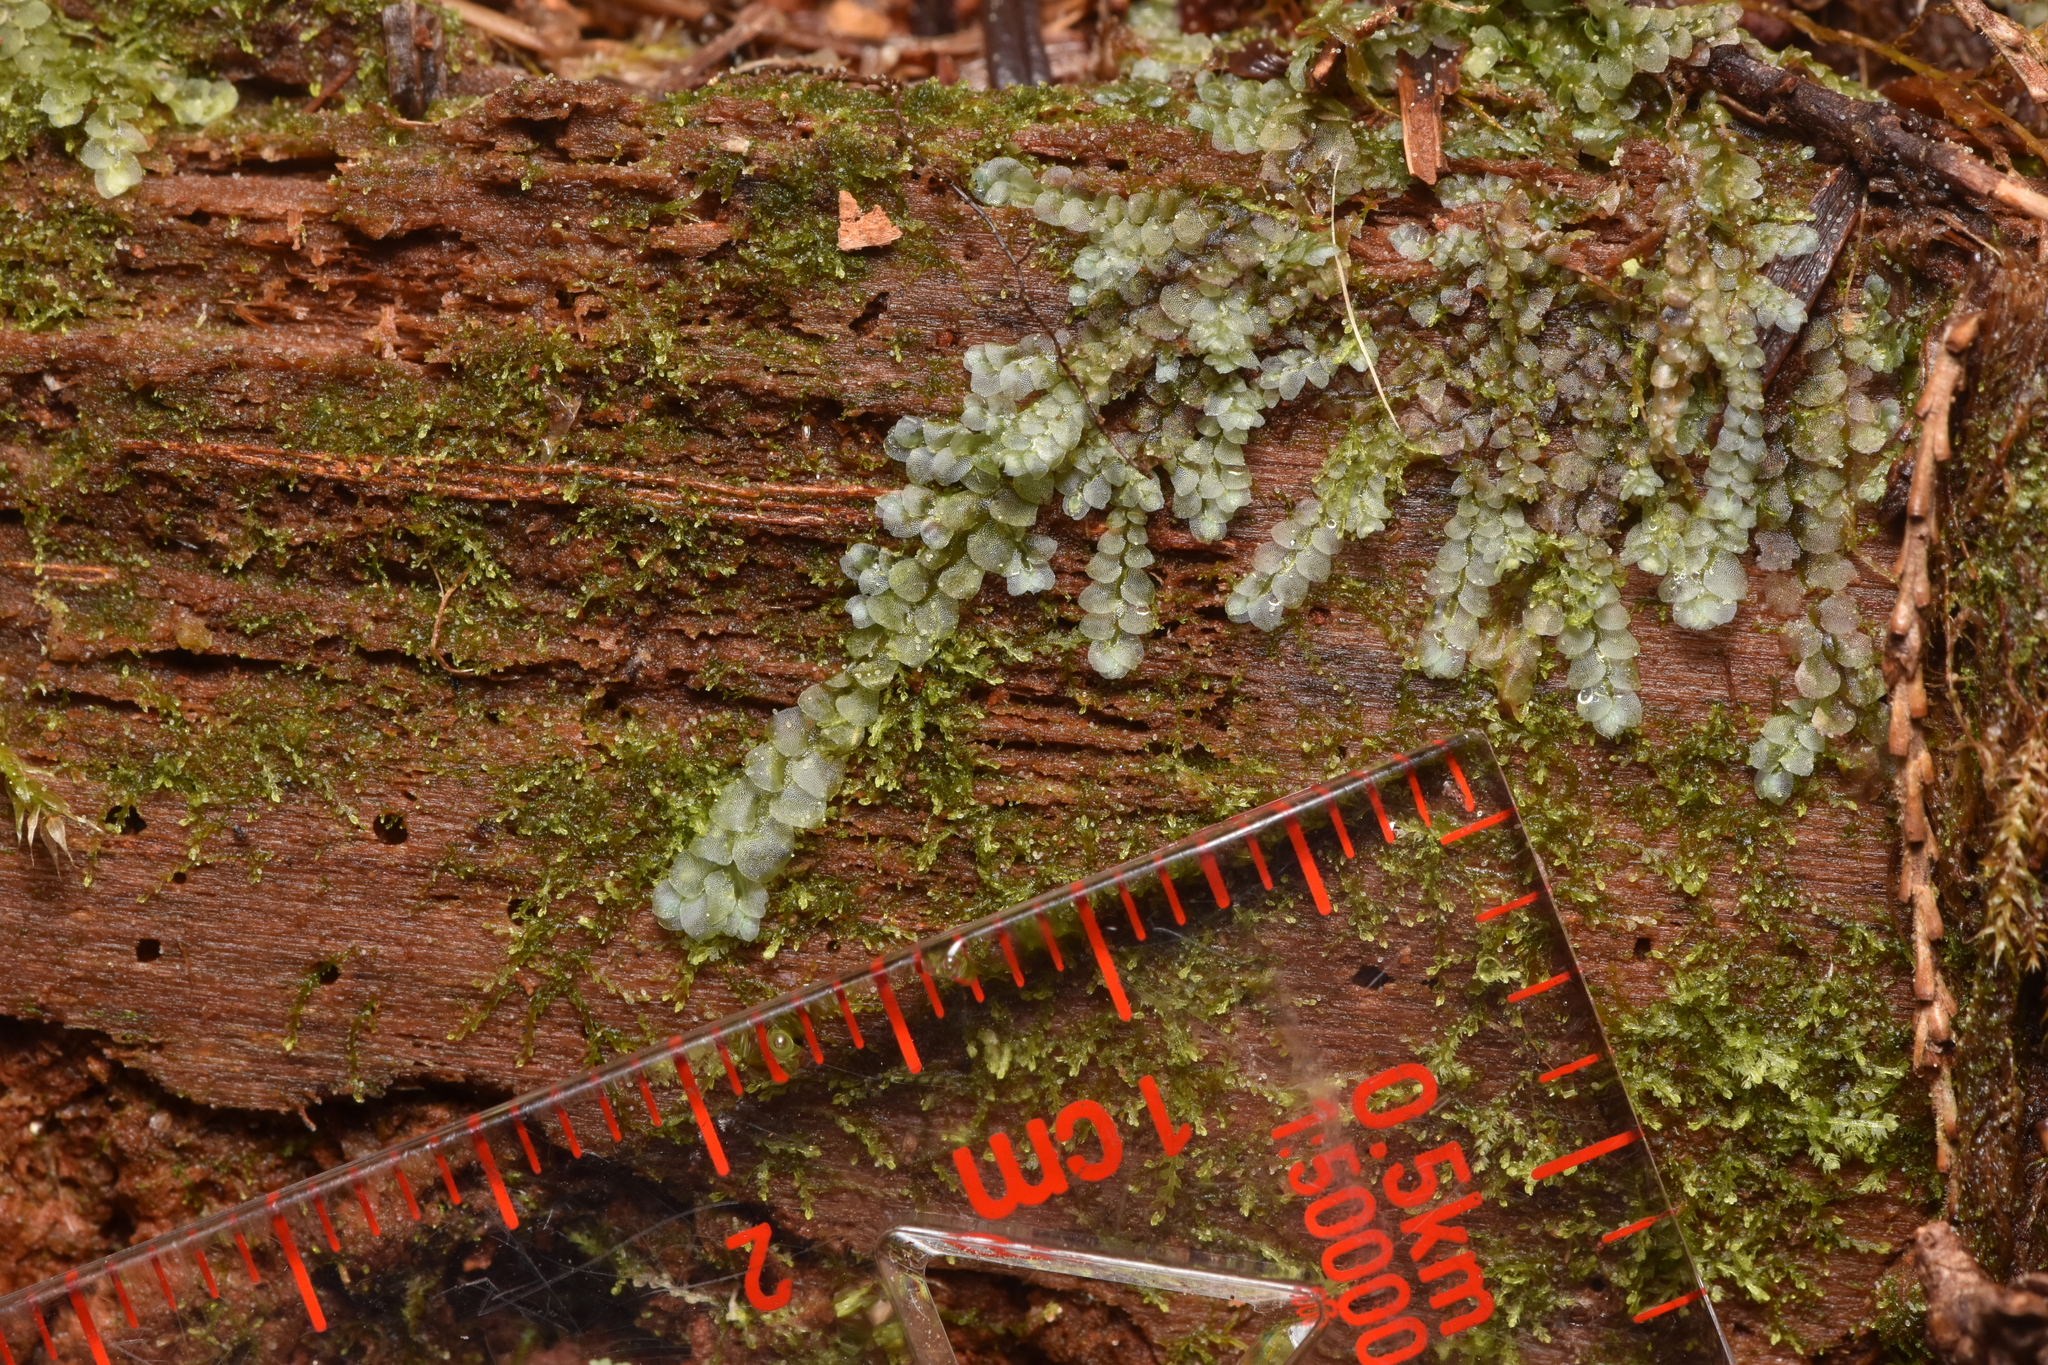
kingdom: Plantae
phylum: Marchantiophyta
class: Jungermanniopsida
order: Jungermanniales
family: Calypogeiaceae
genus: Calypogeia
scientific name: Calypogeia azurea
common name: Blue pouchwort
